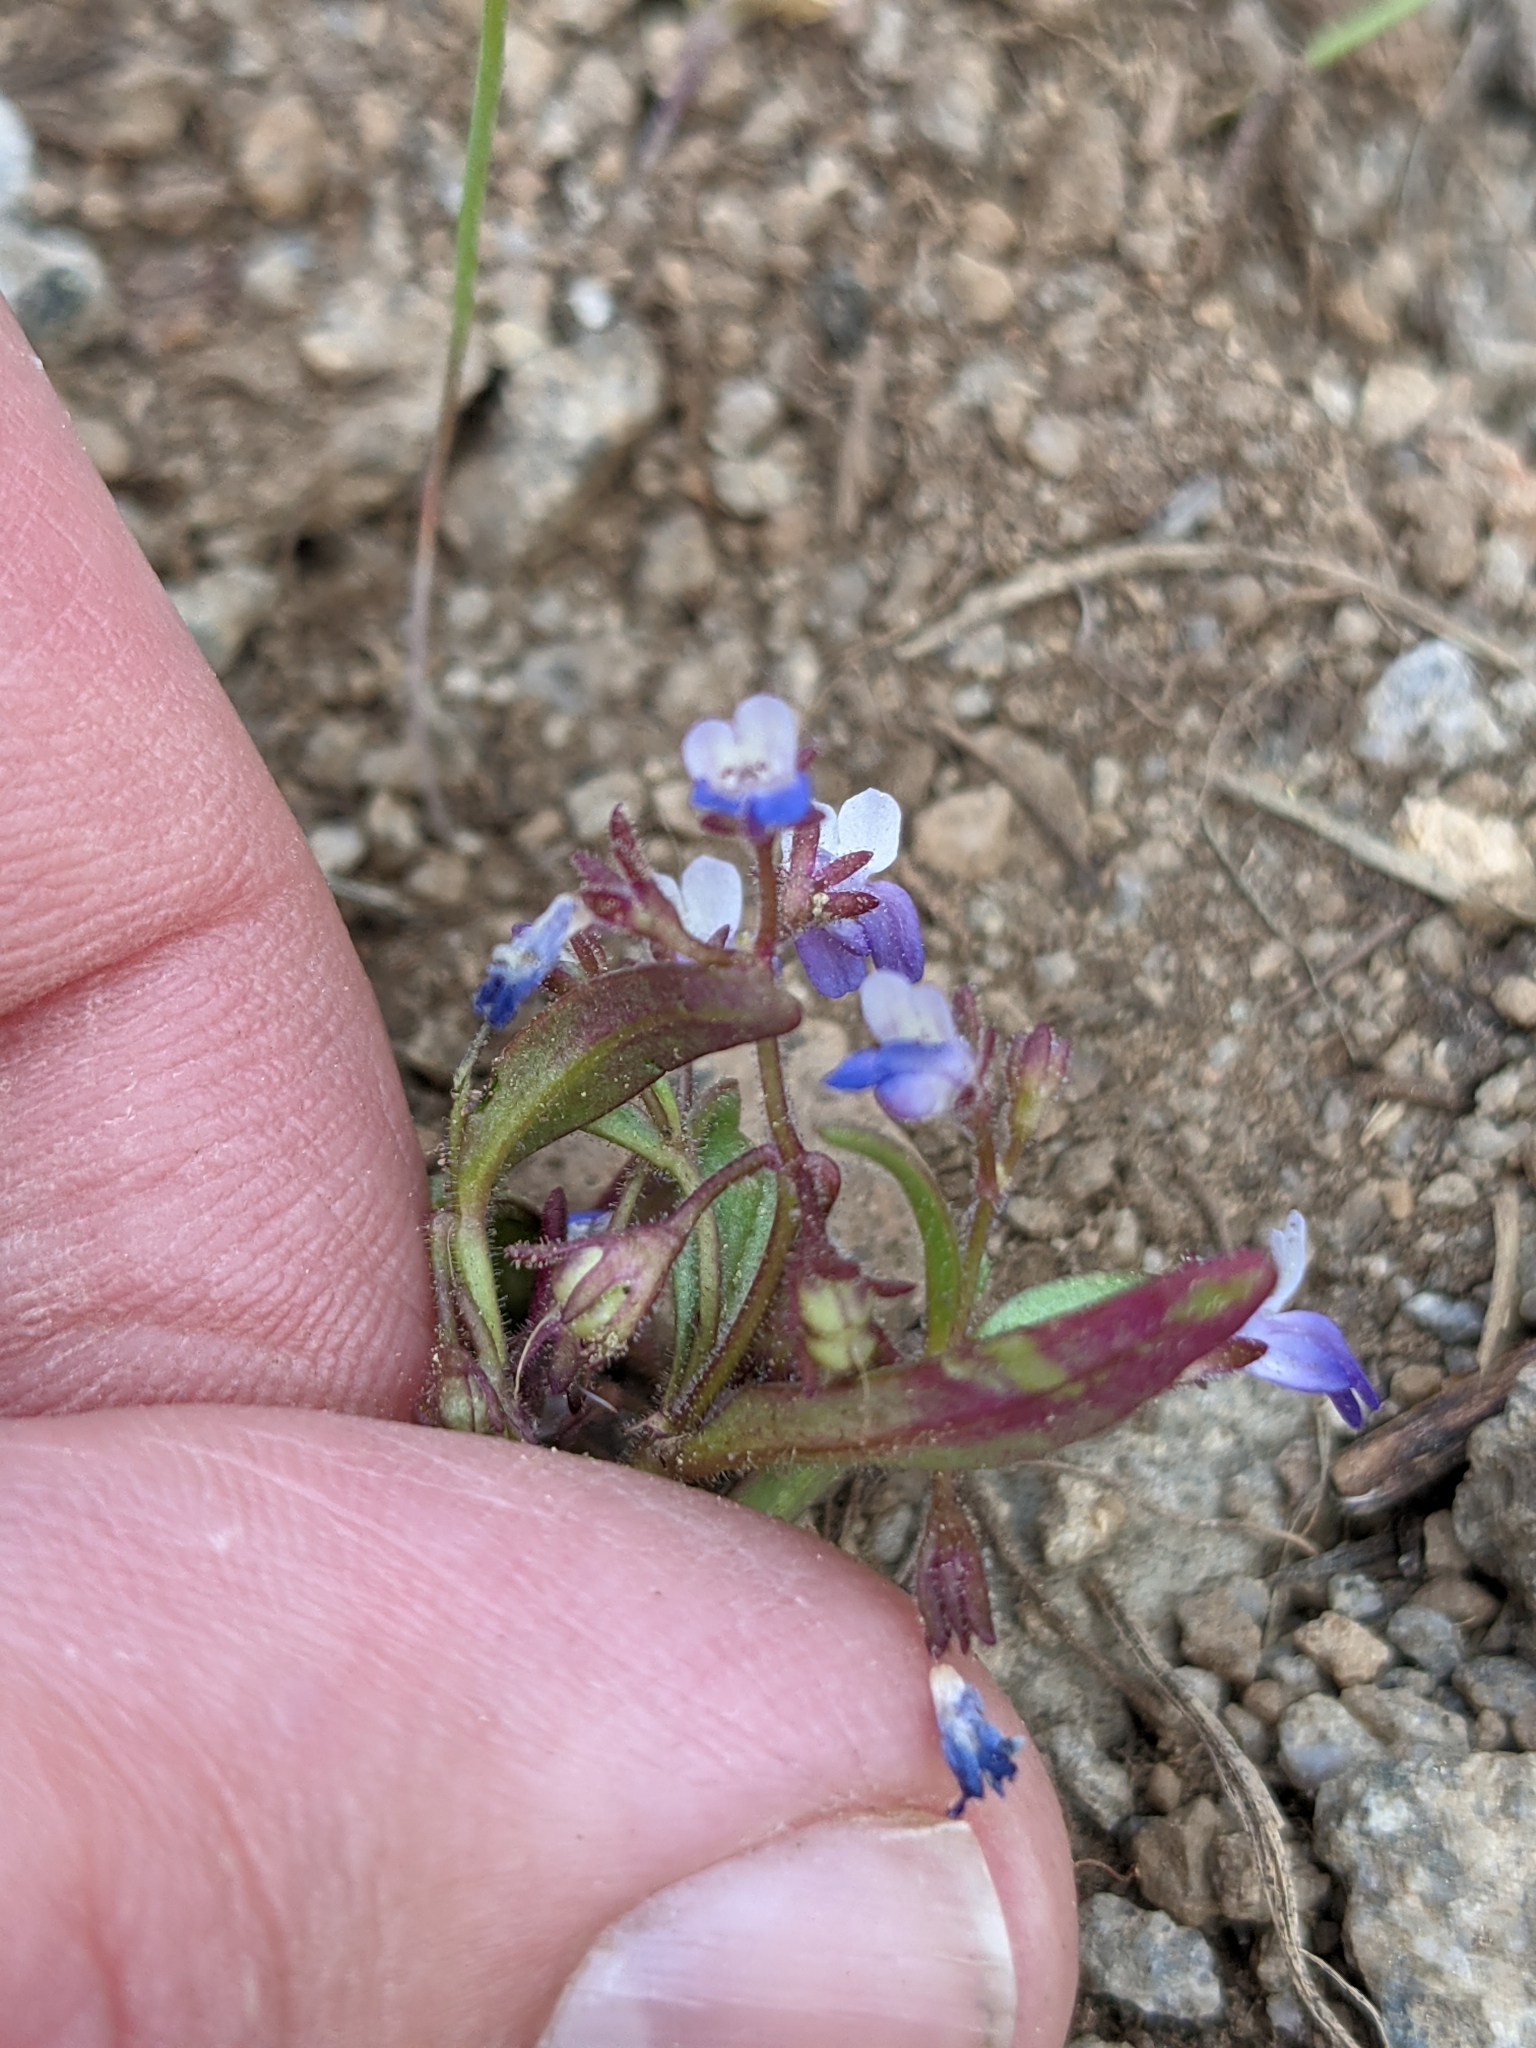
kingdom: Plantae
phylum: Tracheophyta
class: Magnoliopsida
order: Lamiales
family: Plantaginaceae
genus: Collinsia
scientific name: Collinsia torreyi
